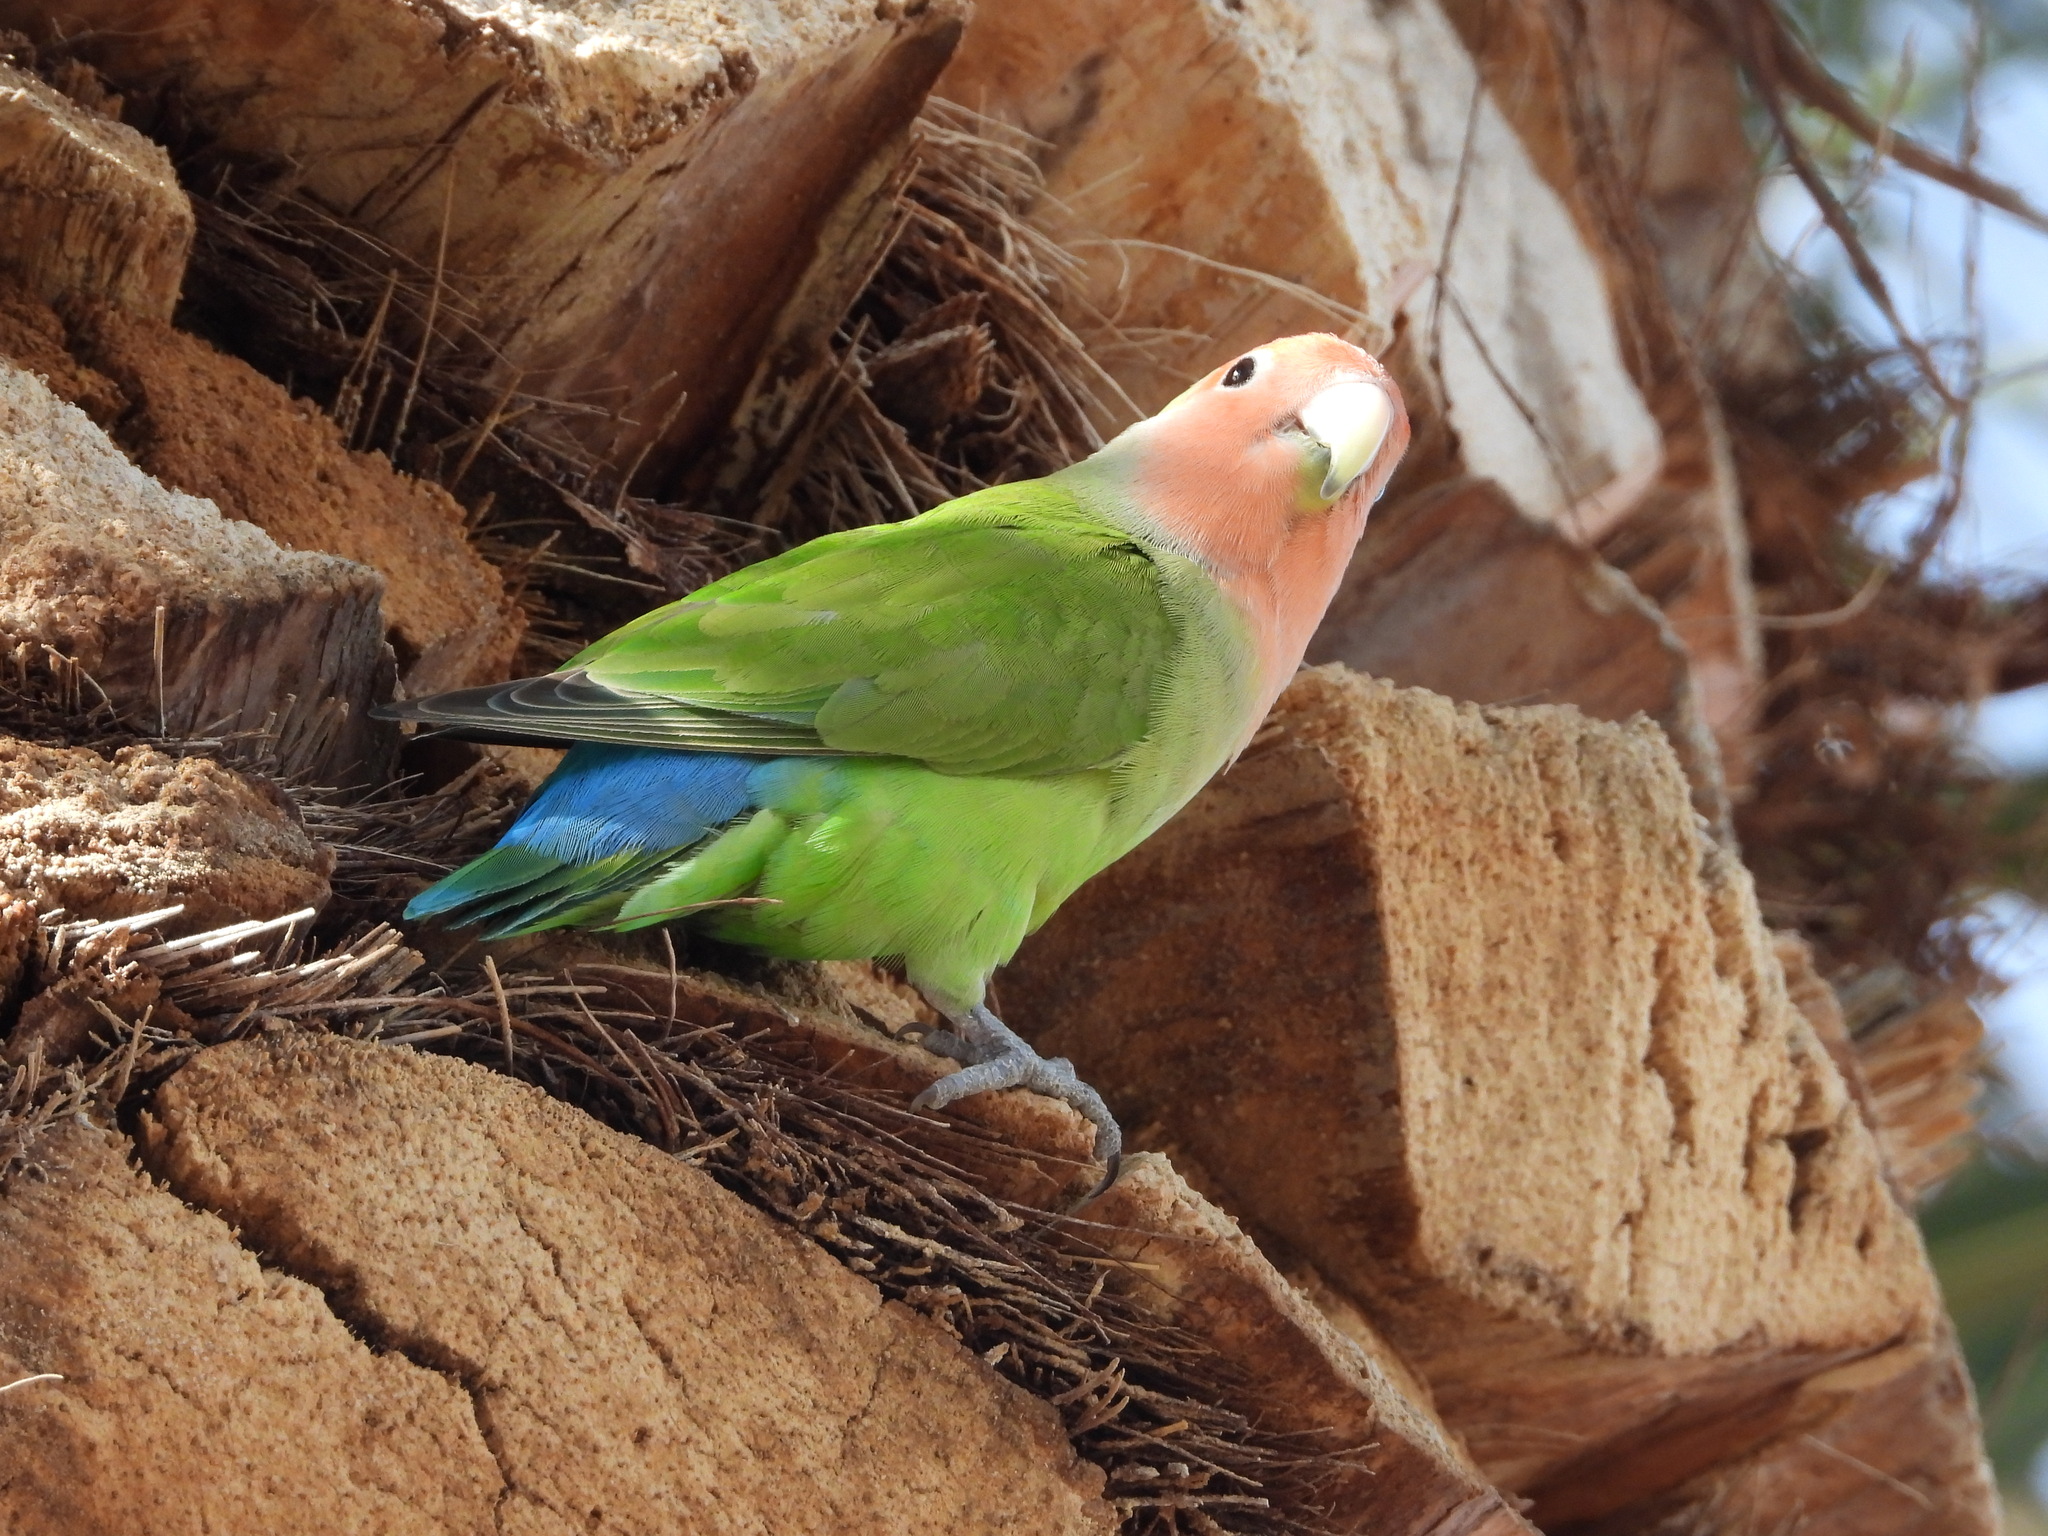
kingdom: Animalia
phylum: Chordata
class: Aves
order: Psittaciformes
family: Psittacidae
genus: Agapornis
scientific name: Agapornis roseicollis
